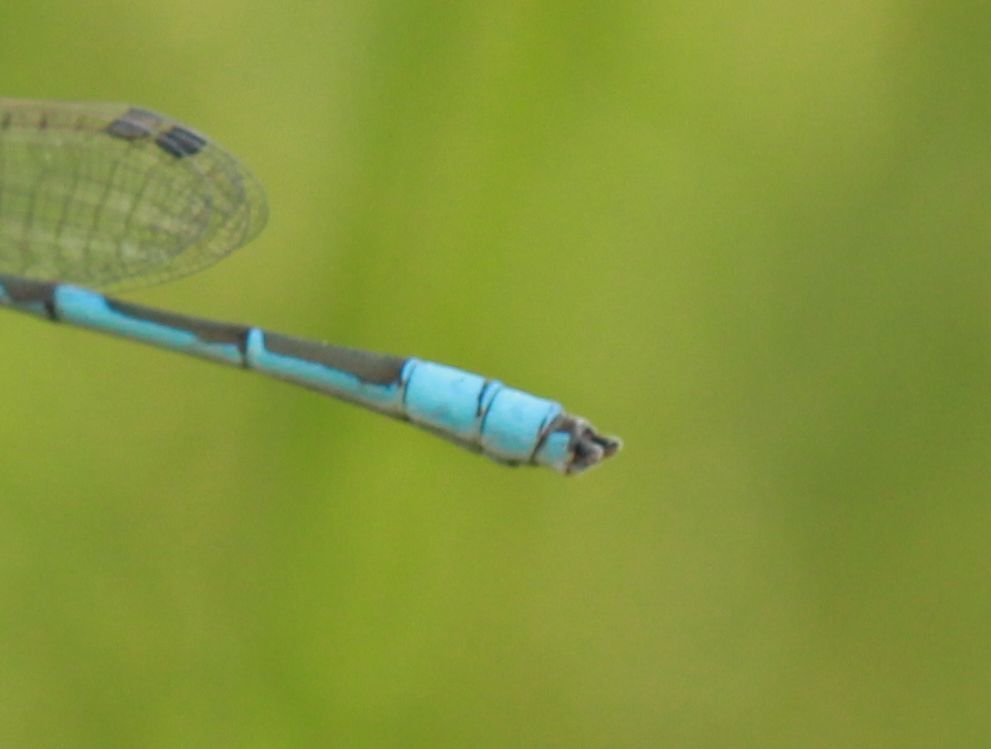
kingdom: Animalia
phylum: Arthropoda
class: Insecta
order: Odonata
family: Coenagrionidae
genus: Enallagma
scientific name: Enallagma civile
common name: Damselfly
